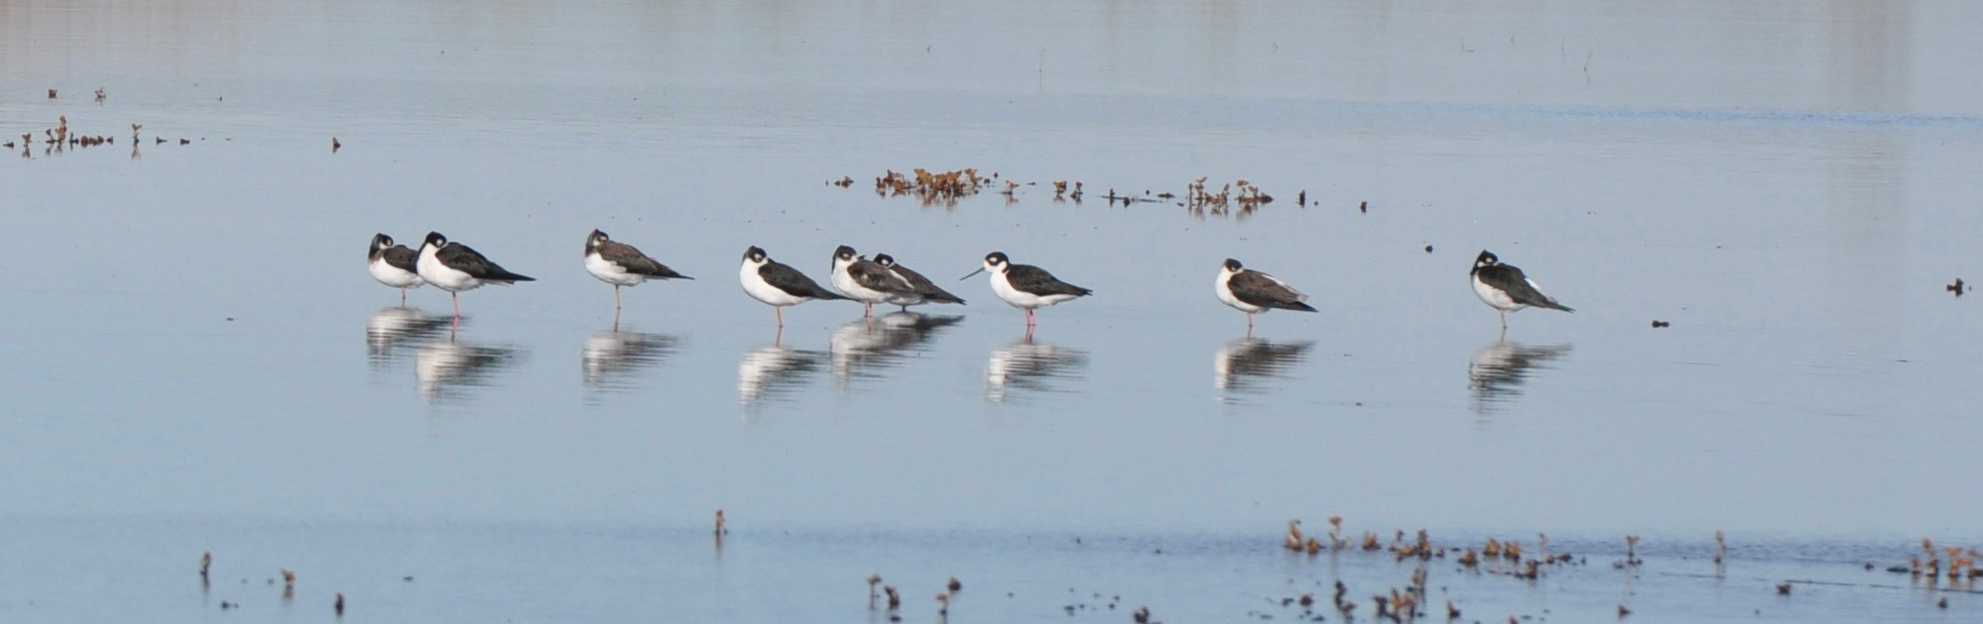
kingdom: Animalia
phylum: Chordata
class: Aves
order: Charadriiformes
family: Recurvirostridae
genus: Himantopus
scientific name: Himantopus mexicanus
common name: Black-necked stilt
